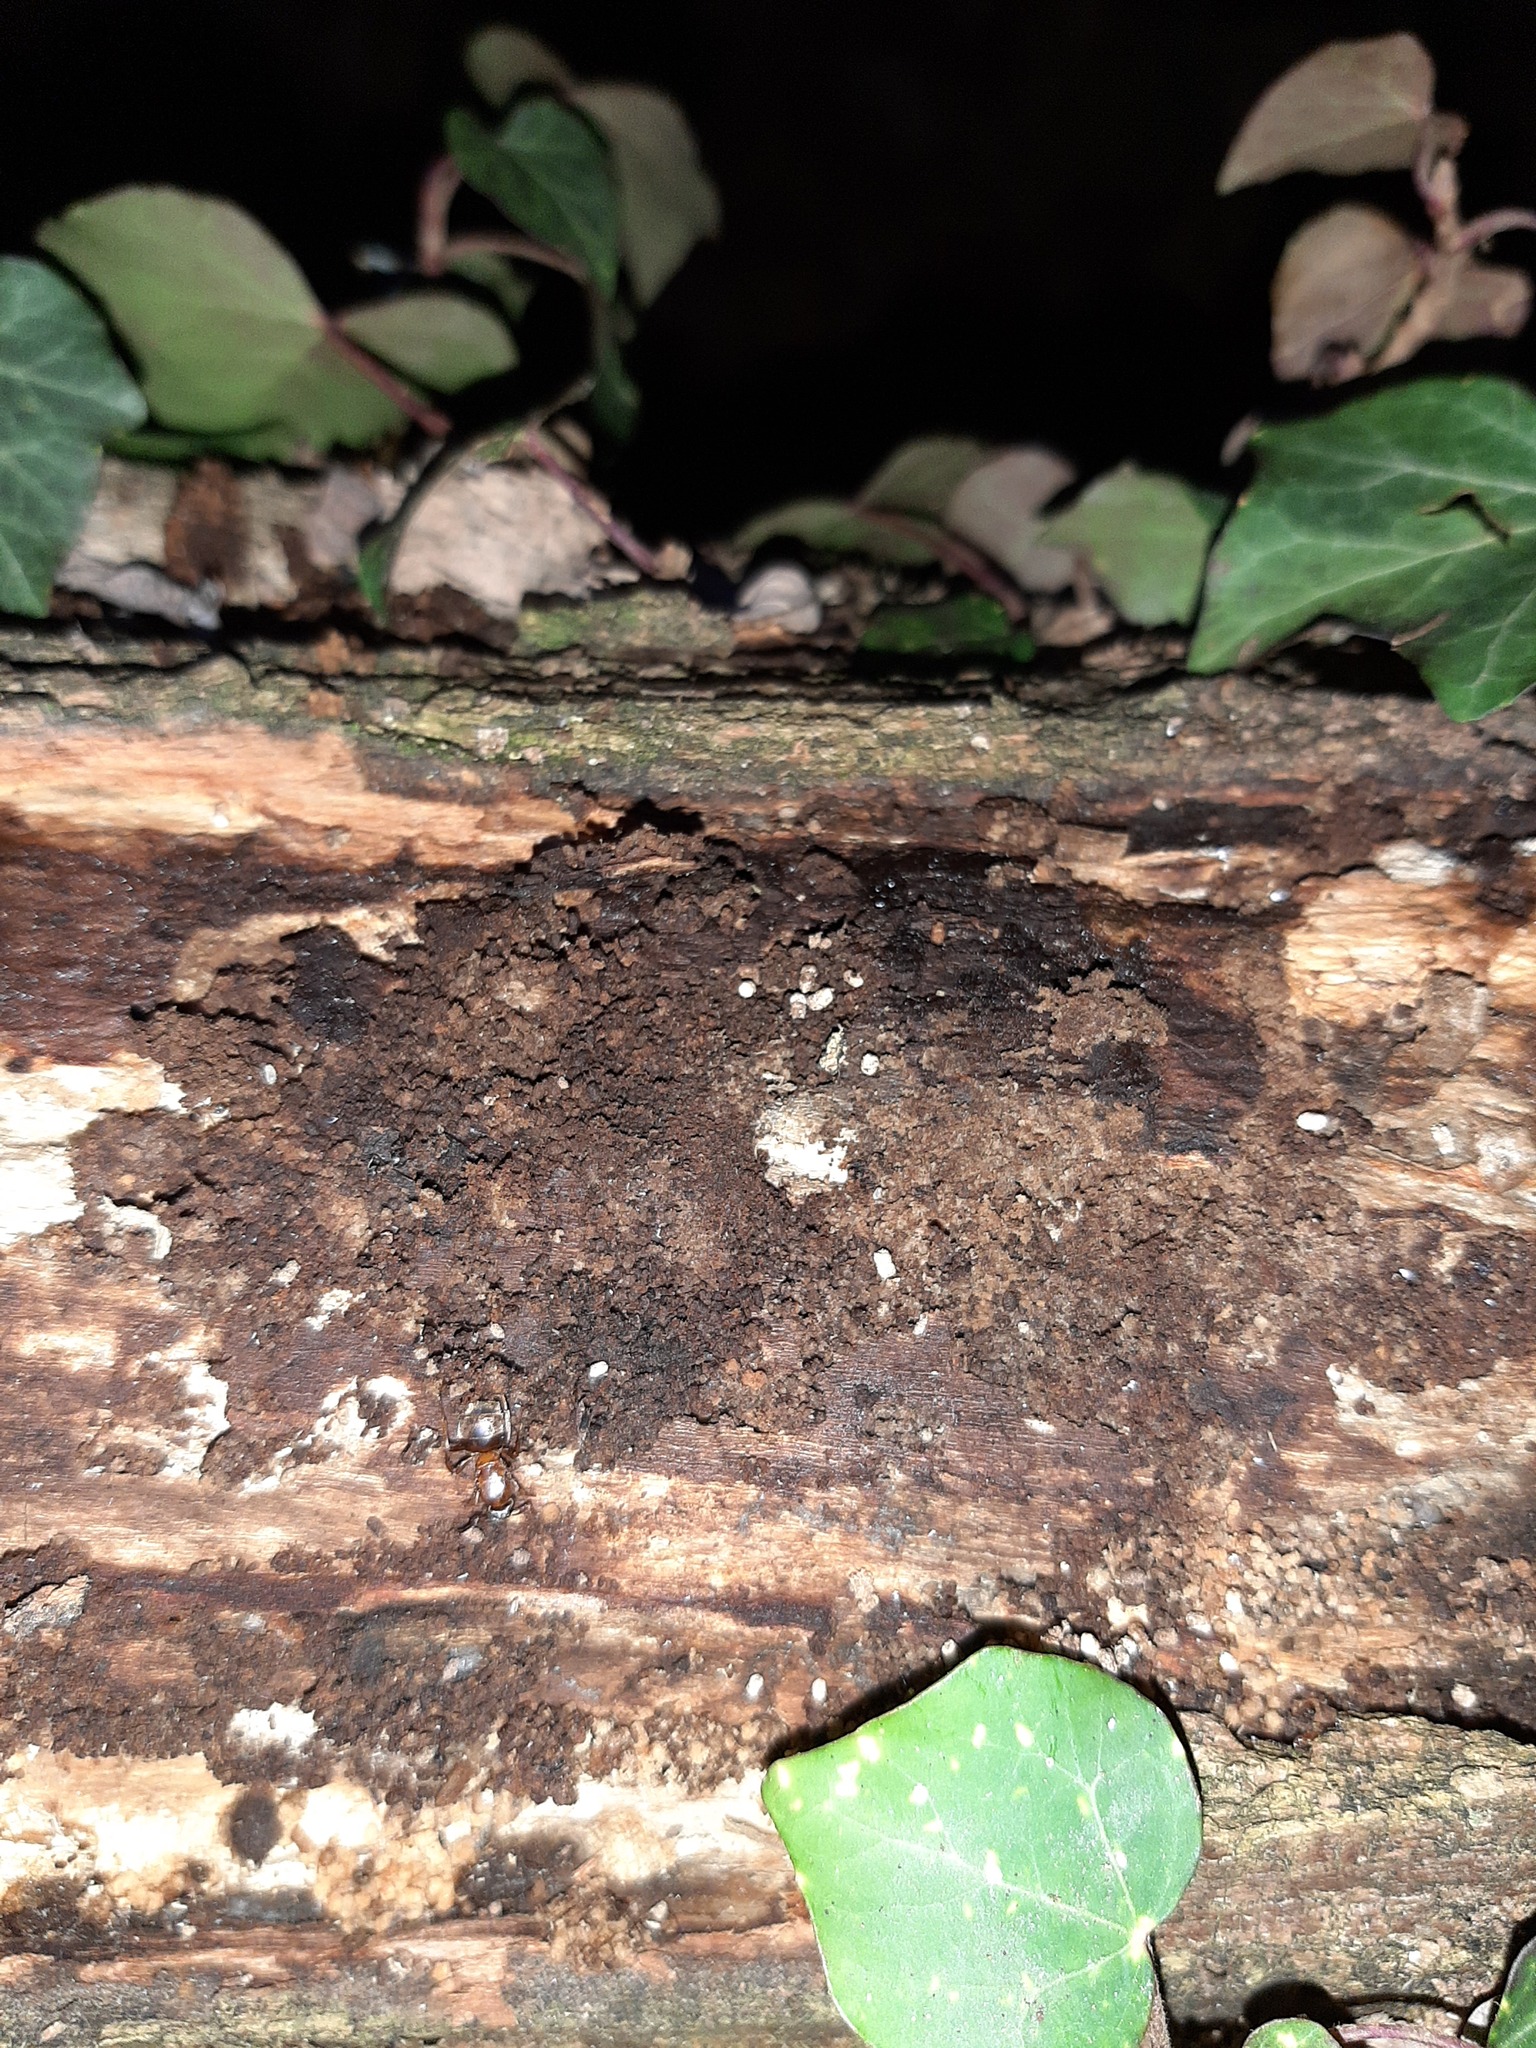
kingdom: Animalia
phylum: Arthropoda
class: Insecta
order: Hymenoptera
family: Formicidae
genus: Lasius
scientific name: Lasius emarginatus
